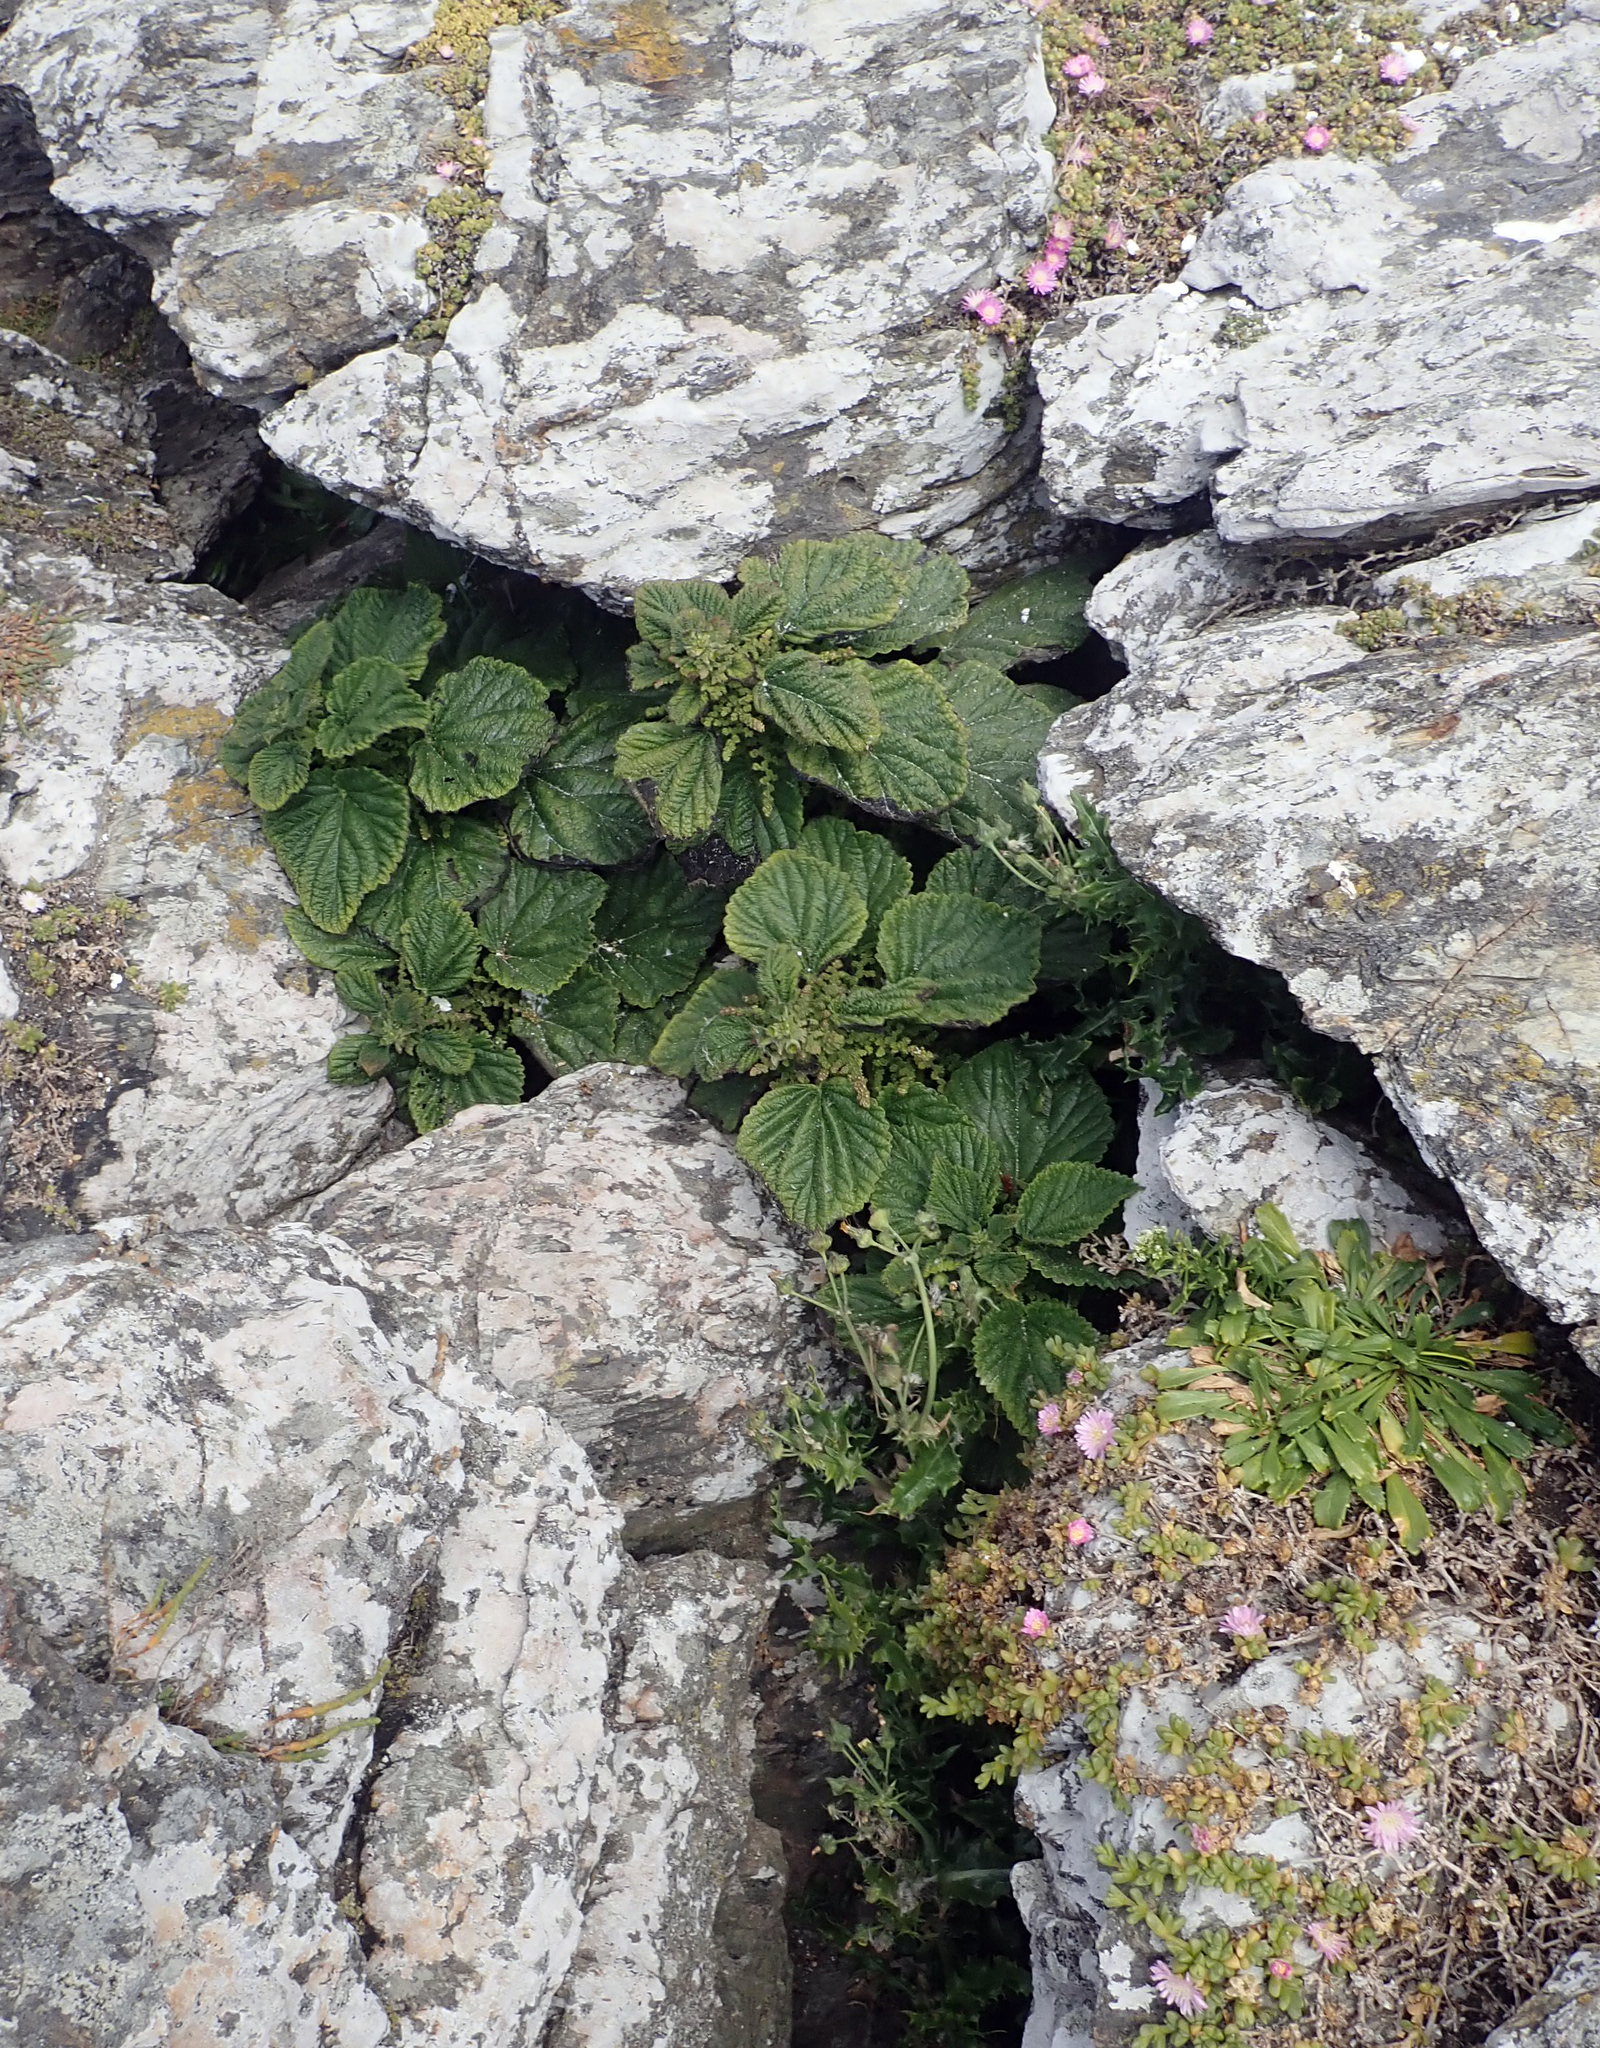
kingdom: Plantae
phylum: Tracheophyta
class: Magnoliopsida
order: Rosales
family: Urticaceae
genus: Urtica
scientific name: Urtica australis
